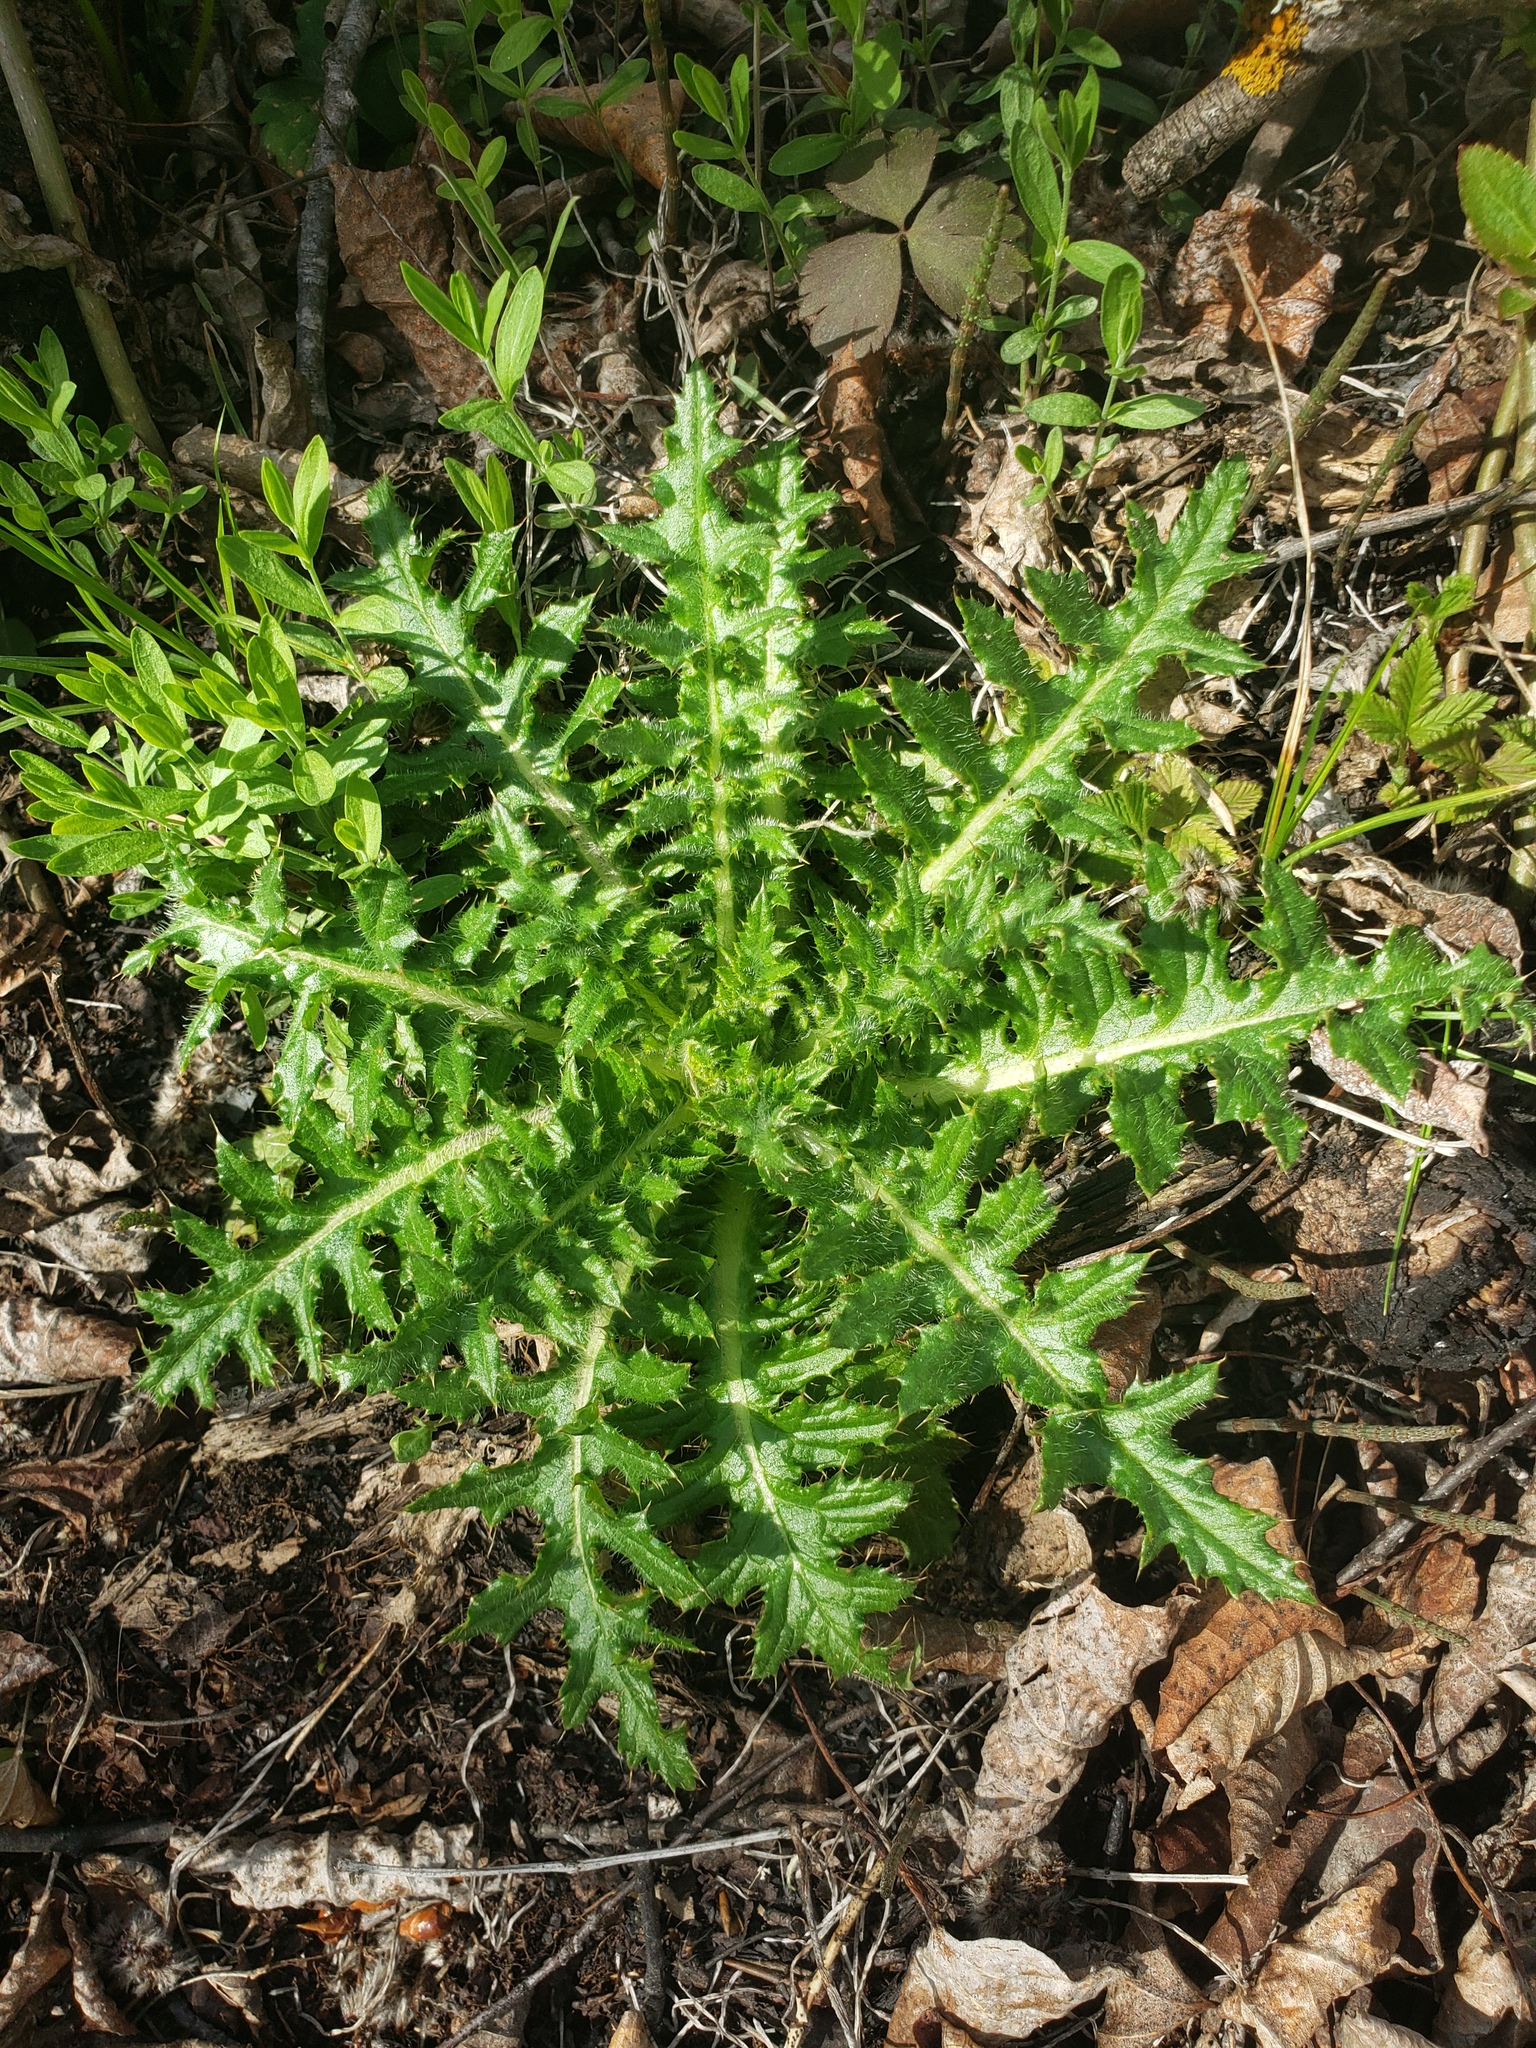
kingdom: Plantae
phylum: Tracheophyta
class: Magnoliopsida
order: Asterales
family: Asteraceae
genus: Cirsium
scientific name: Cirsium muticum
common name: Dunce-nettle
